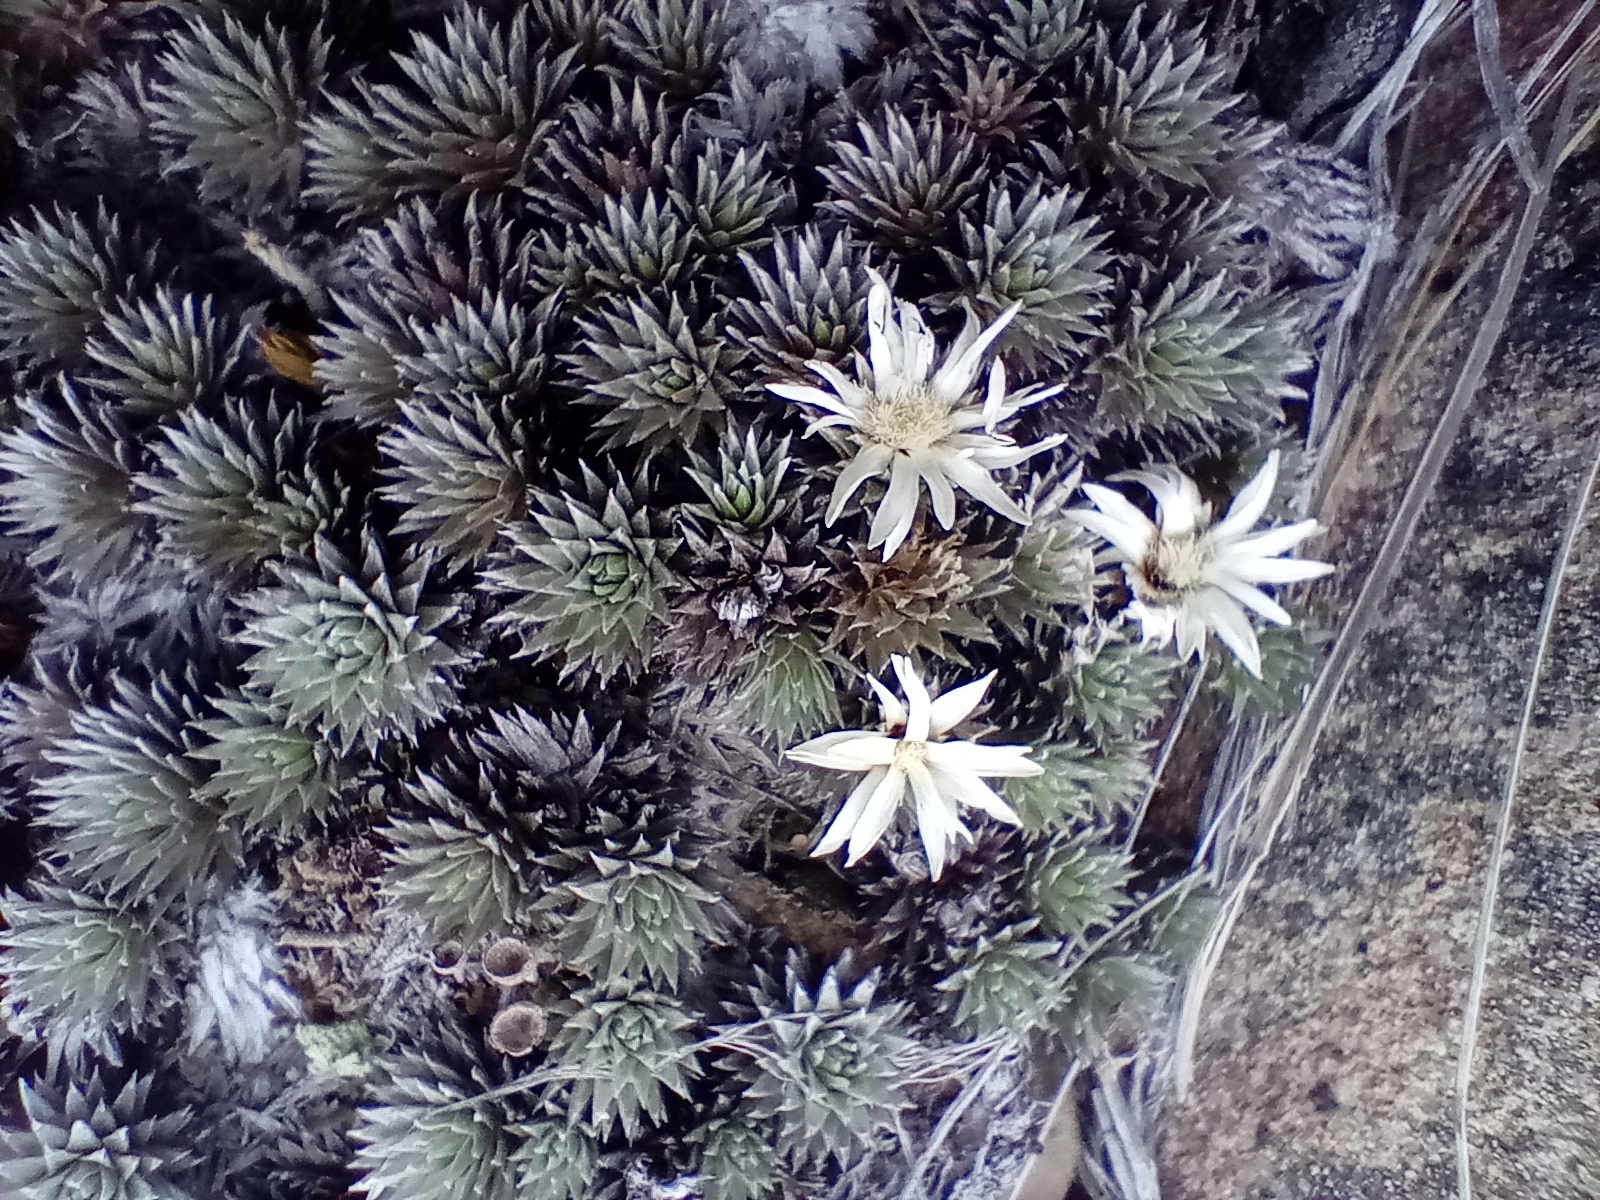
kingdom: Plantae
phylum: Tracheophyta
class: Magnoliopsida
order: Asterales
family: Asteraceae
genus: Raoulia
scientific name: Raoulia grandiflora
